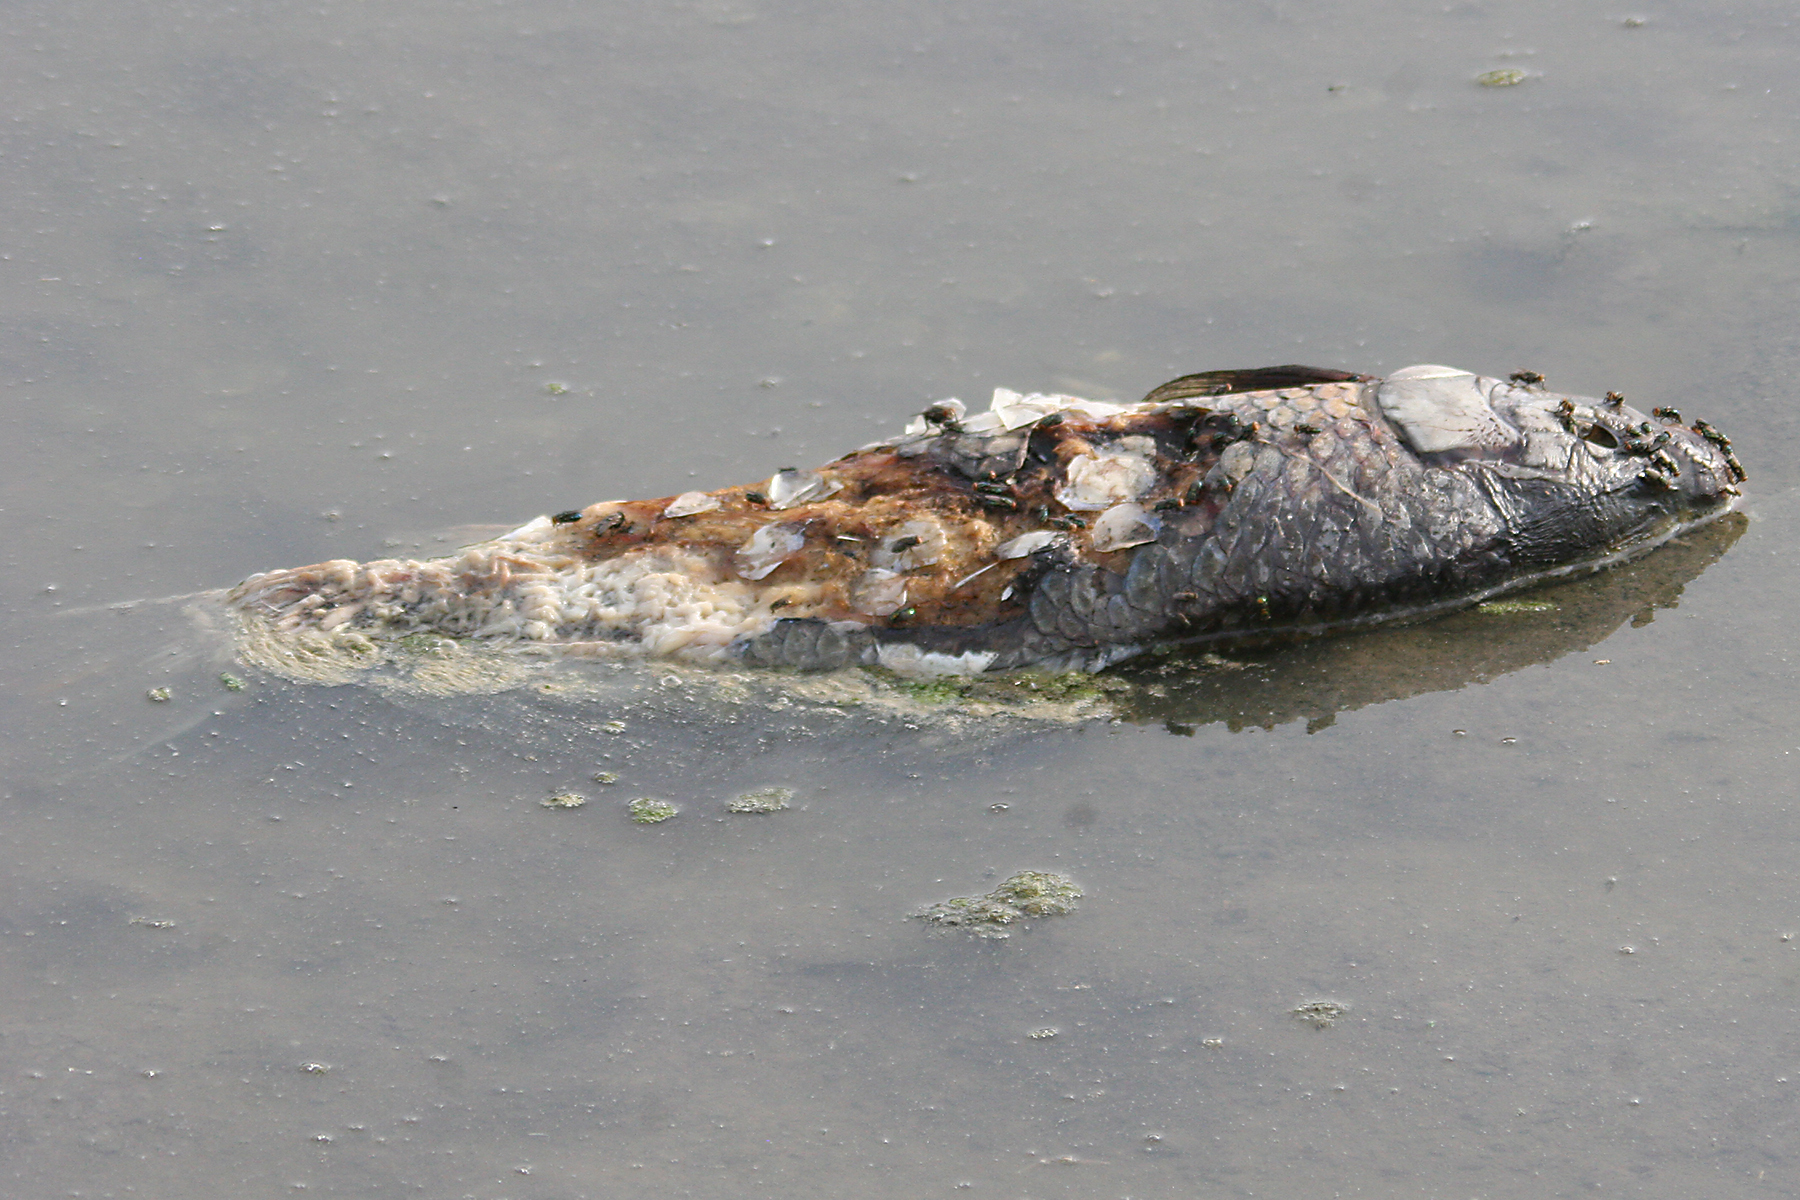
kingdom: Animalia
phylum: Chordata
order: Cypriniformes
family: Cyprinidae
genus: Cyprinus
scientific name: Cyprinus carpio
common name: Common carp
